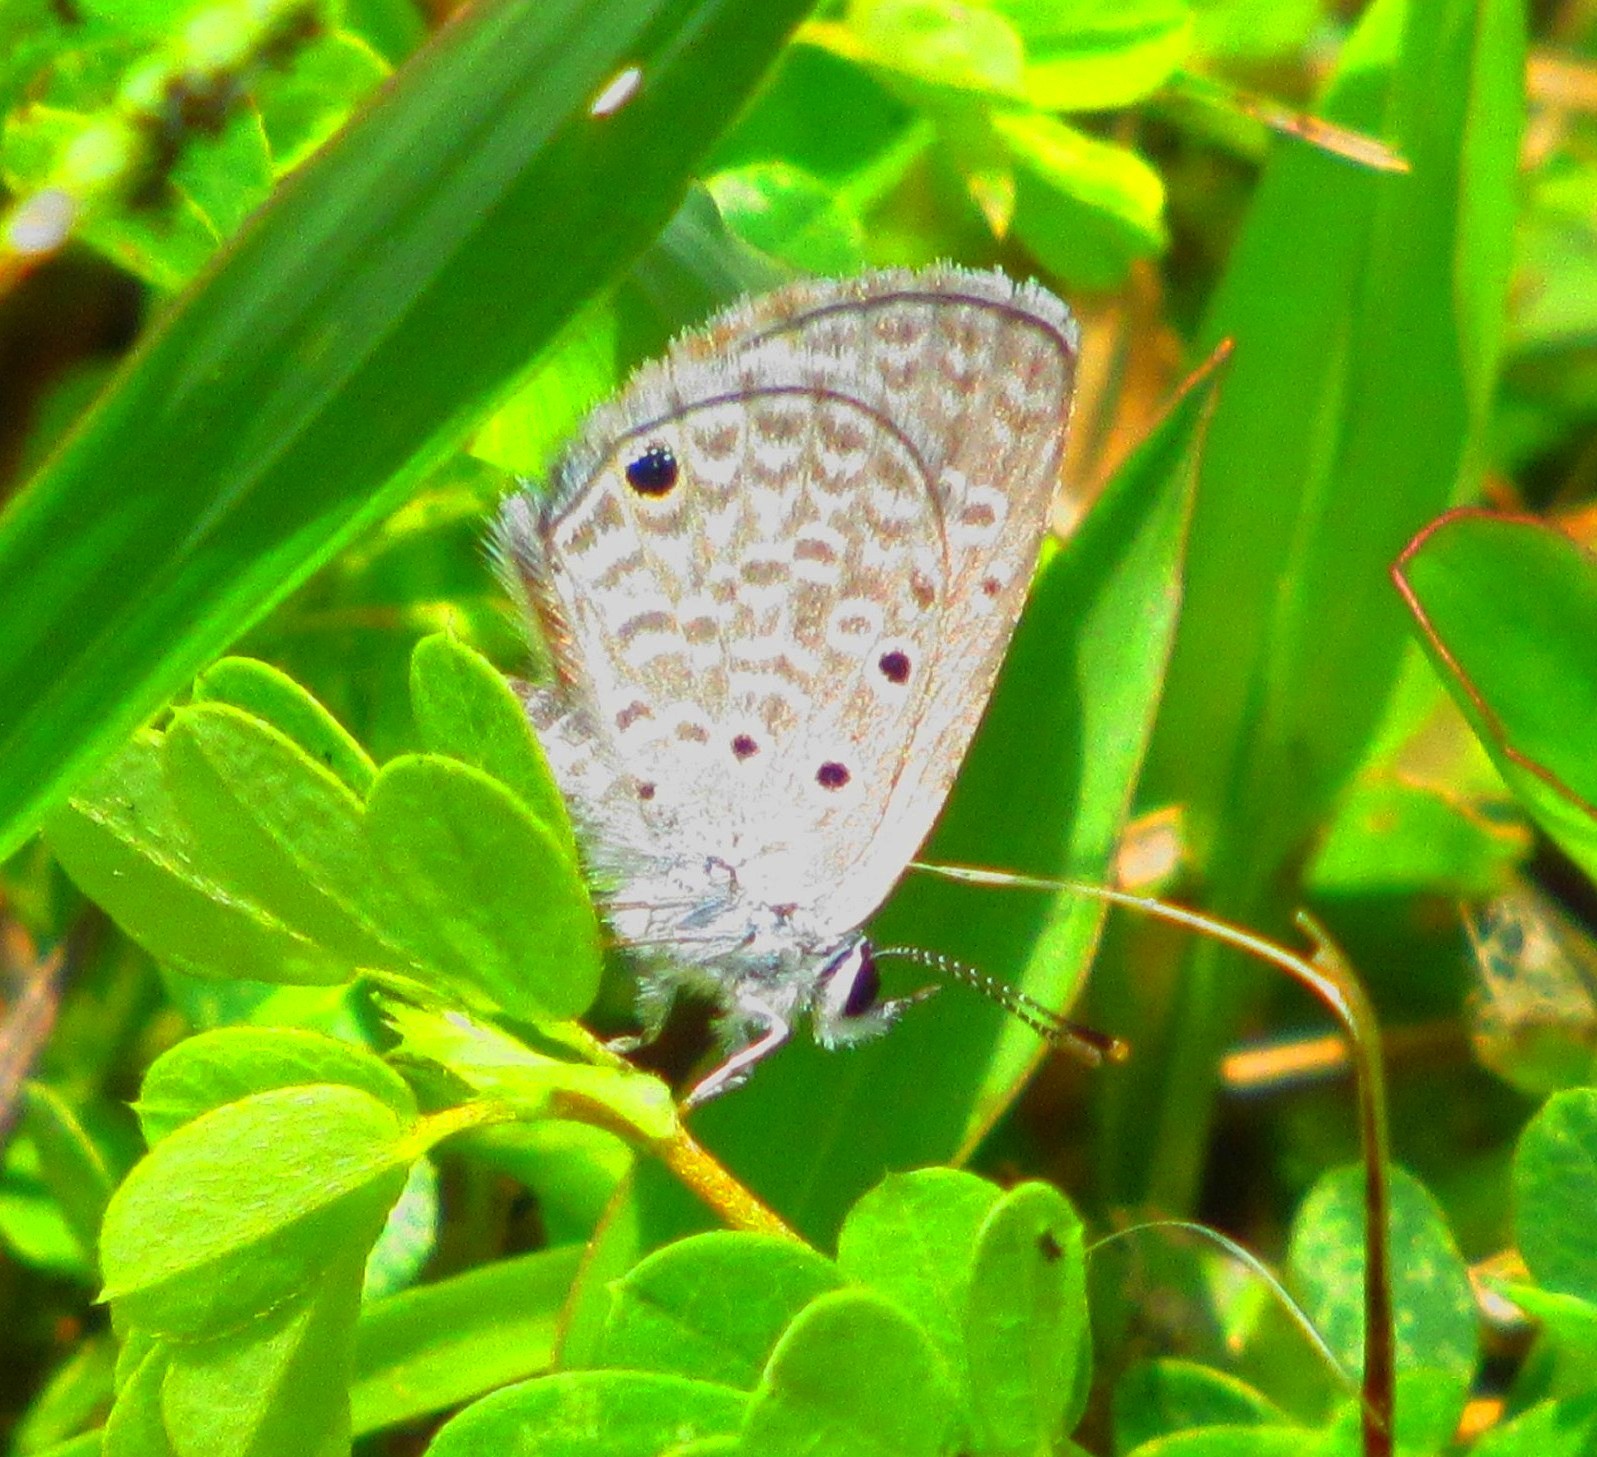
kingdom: Animalia
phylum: Arthropoda
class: Insecta
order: Lepidoptera
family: Lycaenidae
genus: Hemiargus
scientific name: Hemiargus hanno
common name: Common blue
